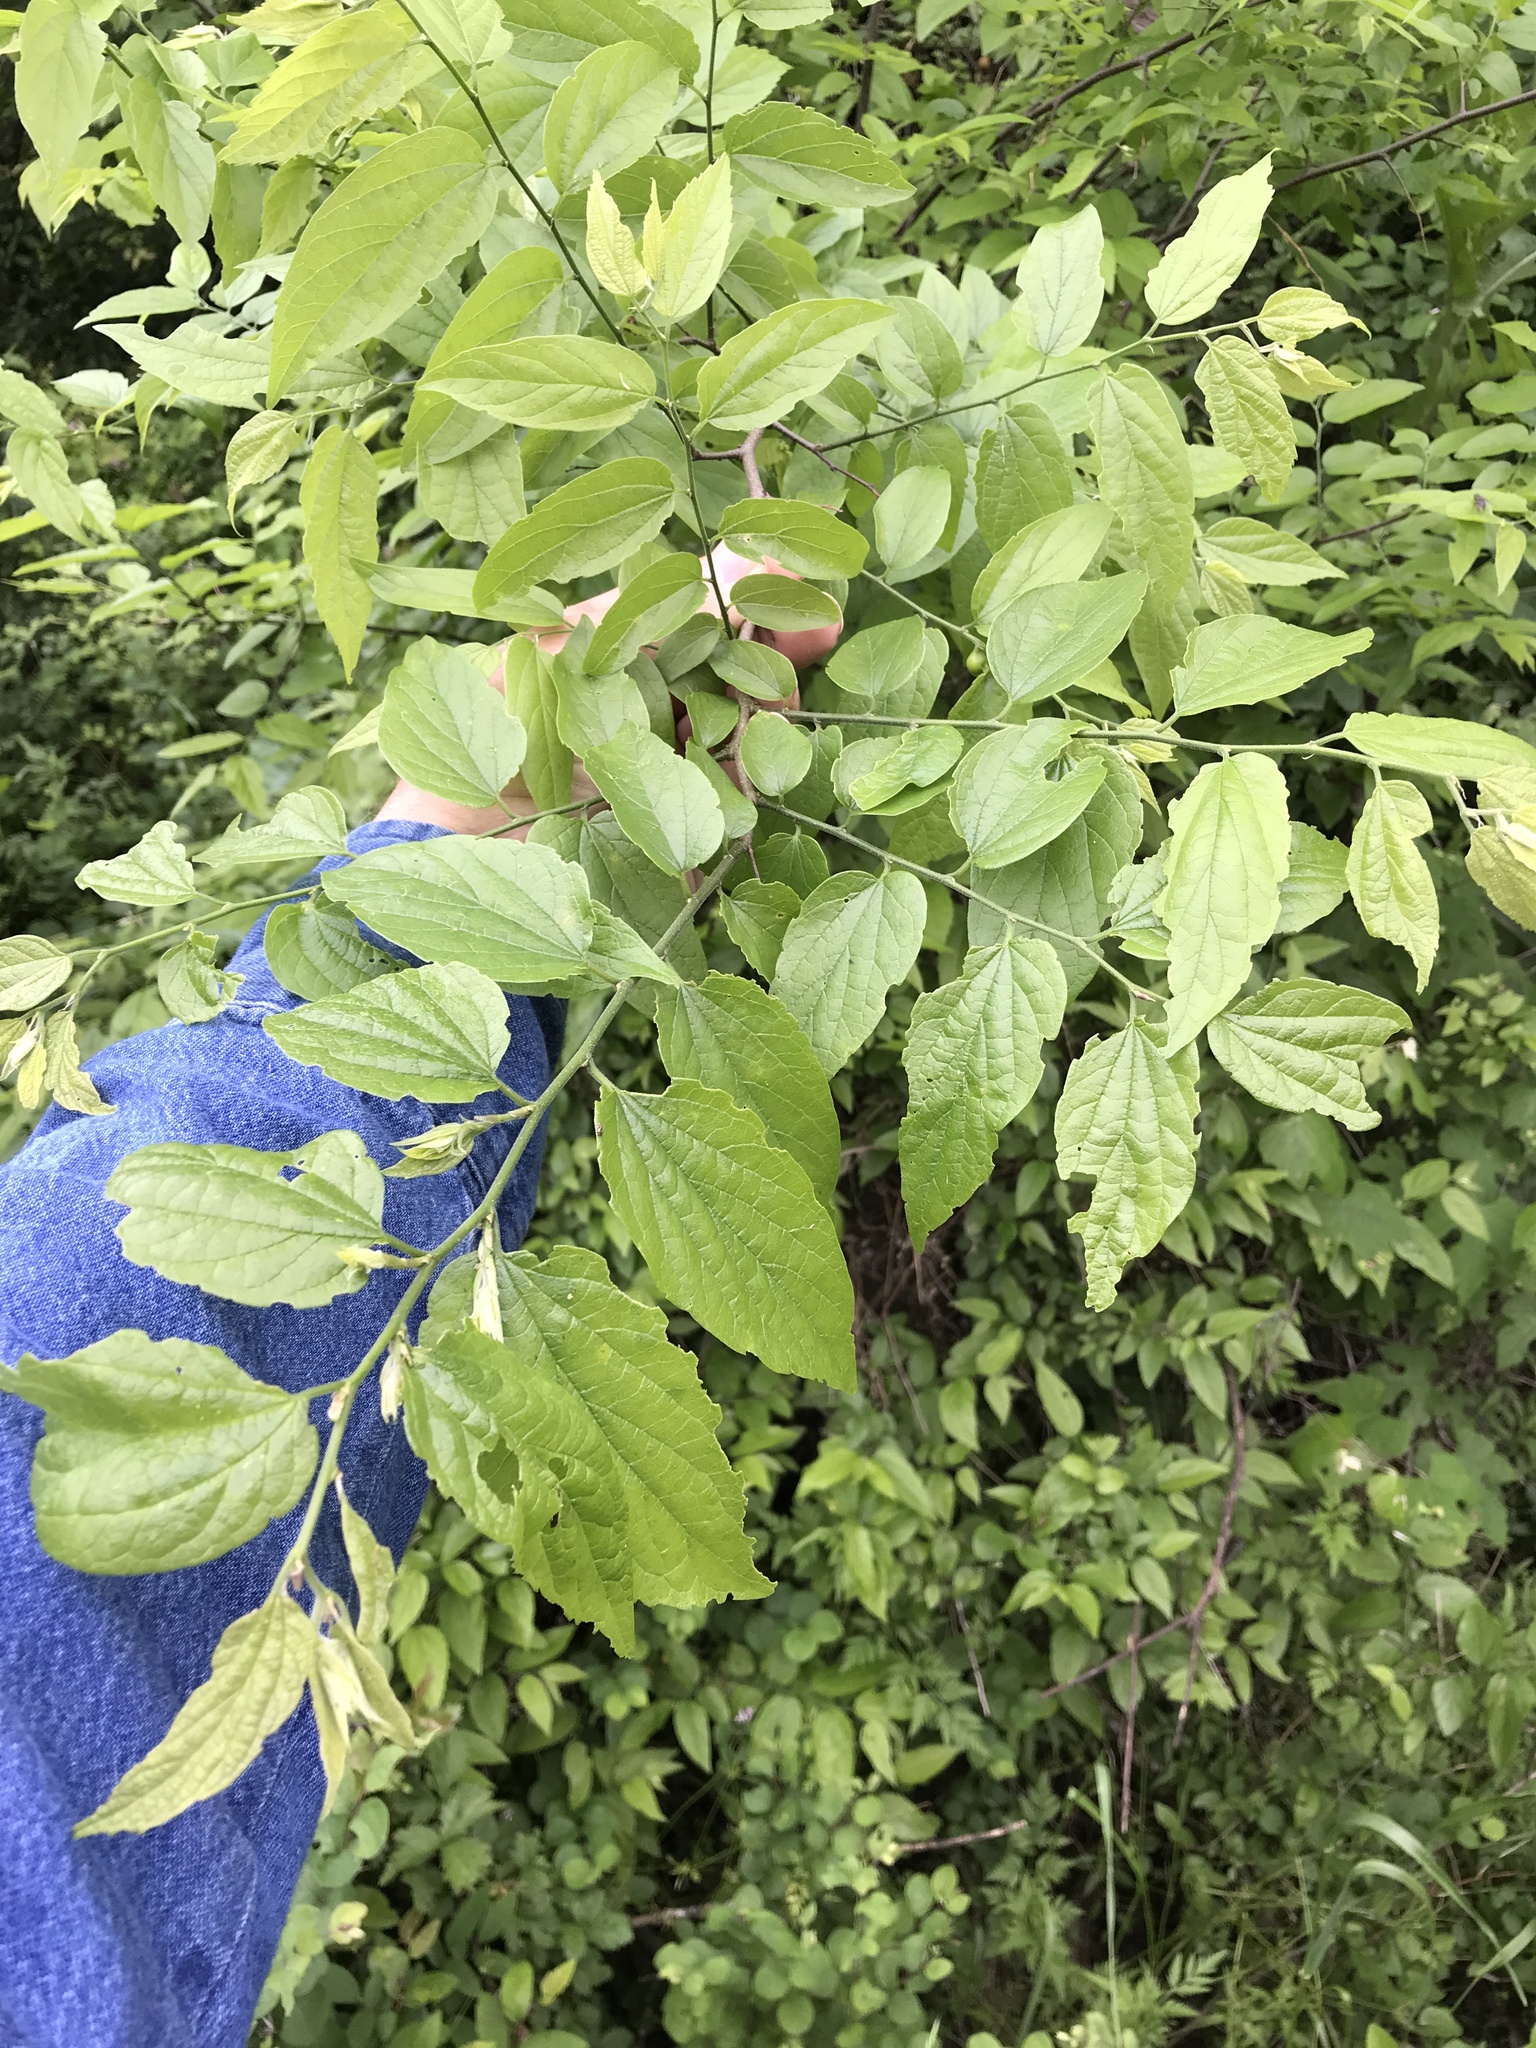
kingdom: Plantae
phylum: Tracheophyta
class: Magnoliopsida
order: Rosales
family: Cannabaceae
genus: Celtis
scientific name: Celtis laevigata
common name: Sugarberry
